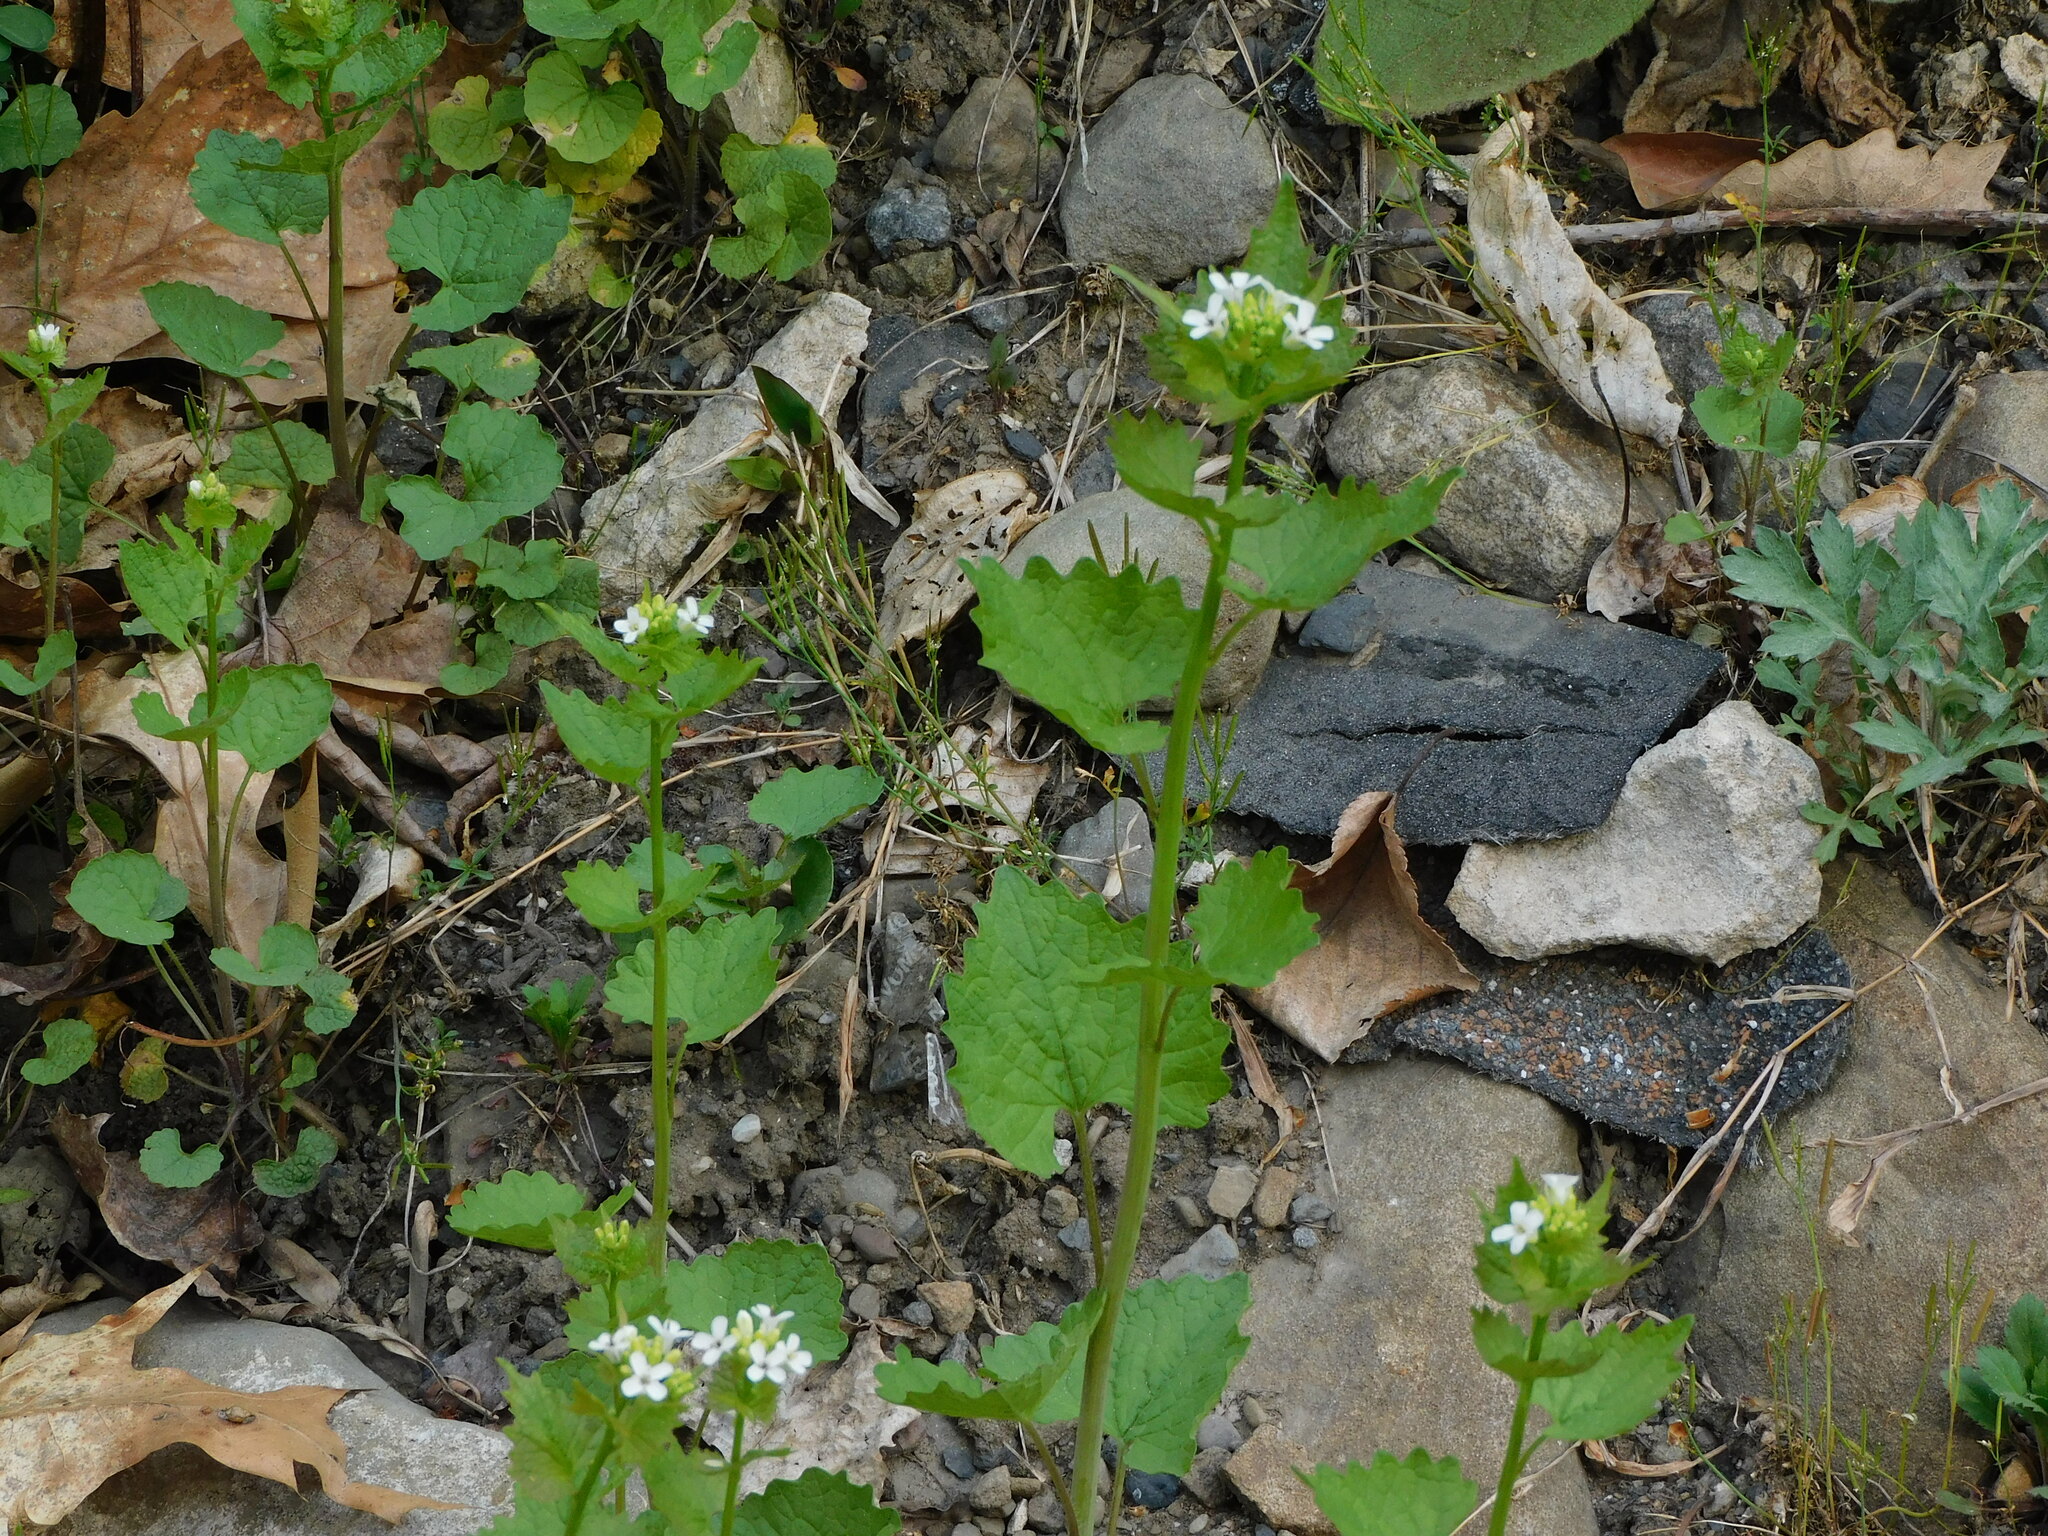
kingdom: Plantae
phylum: Tracheophyta
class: Magnoliopsida
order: Brassicales
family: Brassicaceae
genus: Alliaria
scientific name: Alliaria petiolata
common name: Garlic mustard
